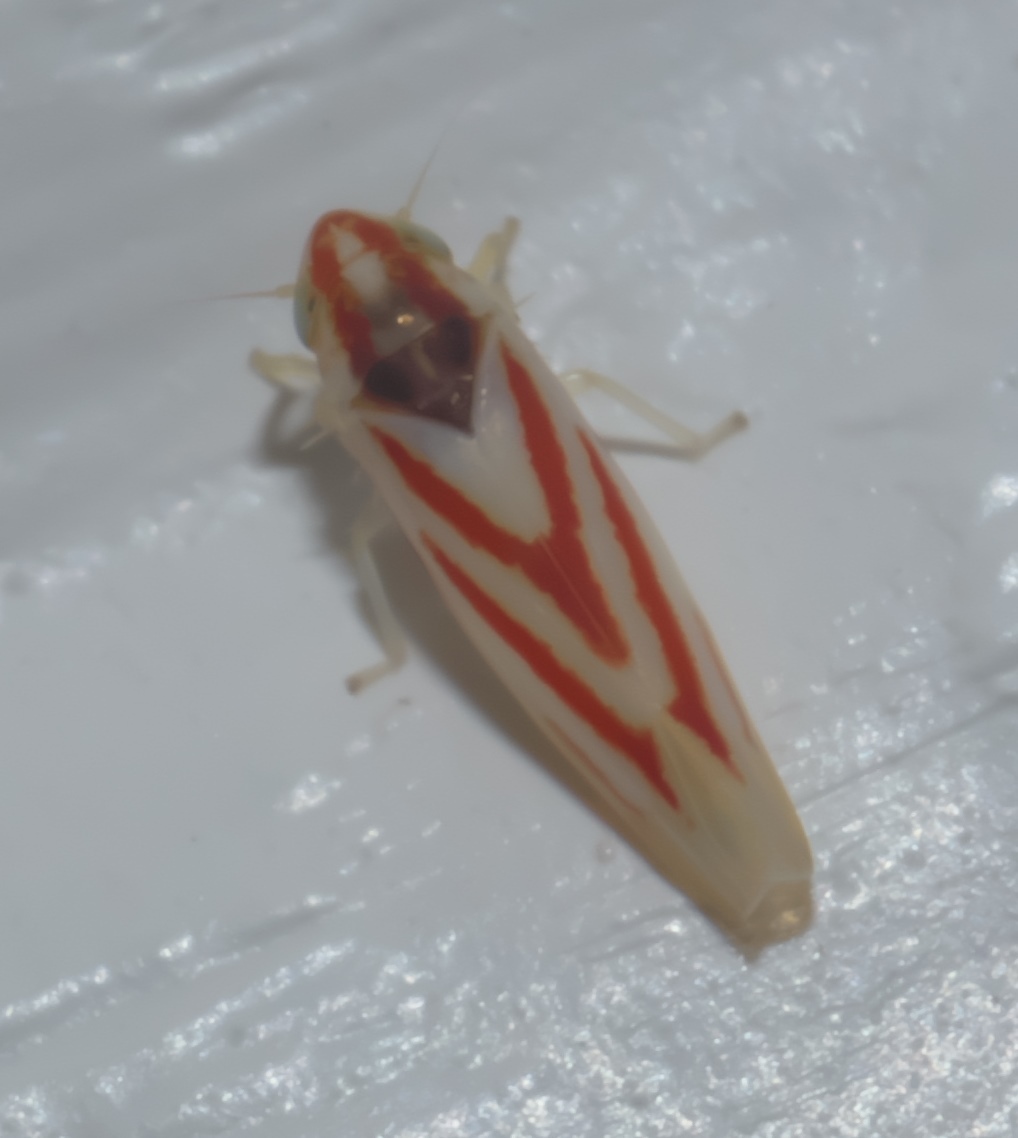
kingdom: Animalia
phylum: Arthropoda
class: Insecta
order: Hemiptera
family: Cicadellidae
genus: Erythridula
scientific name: Erythridula noeva
